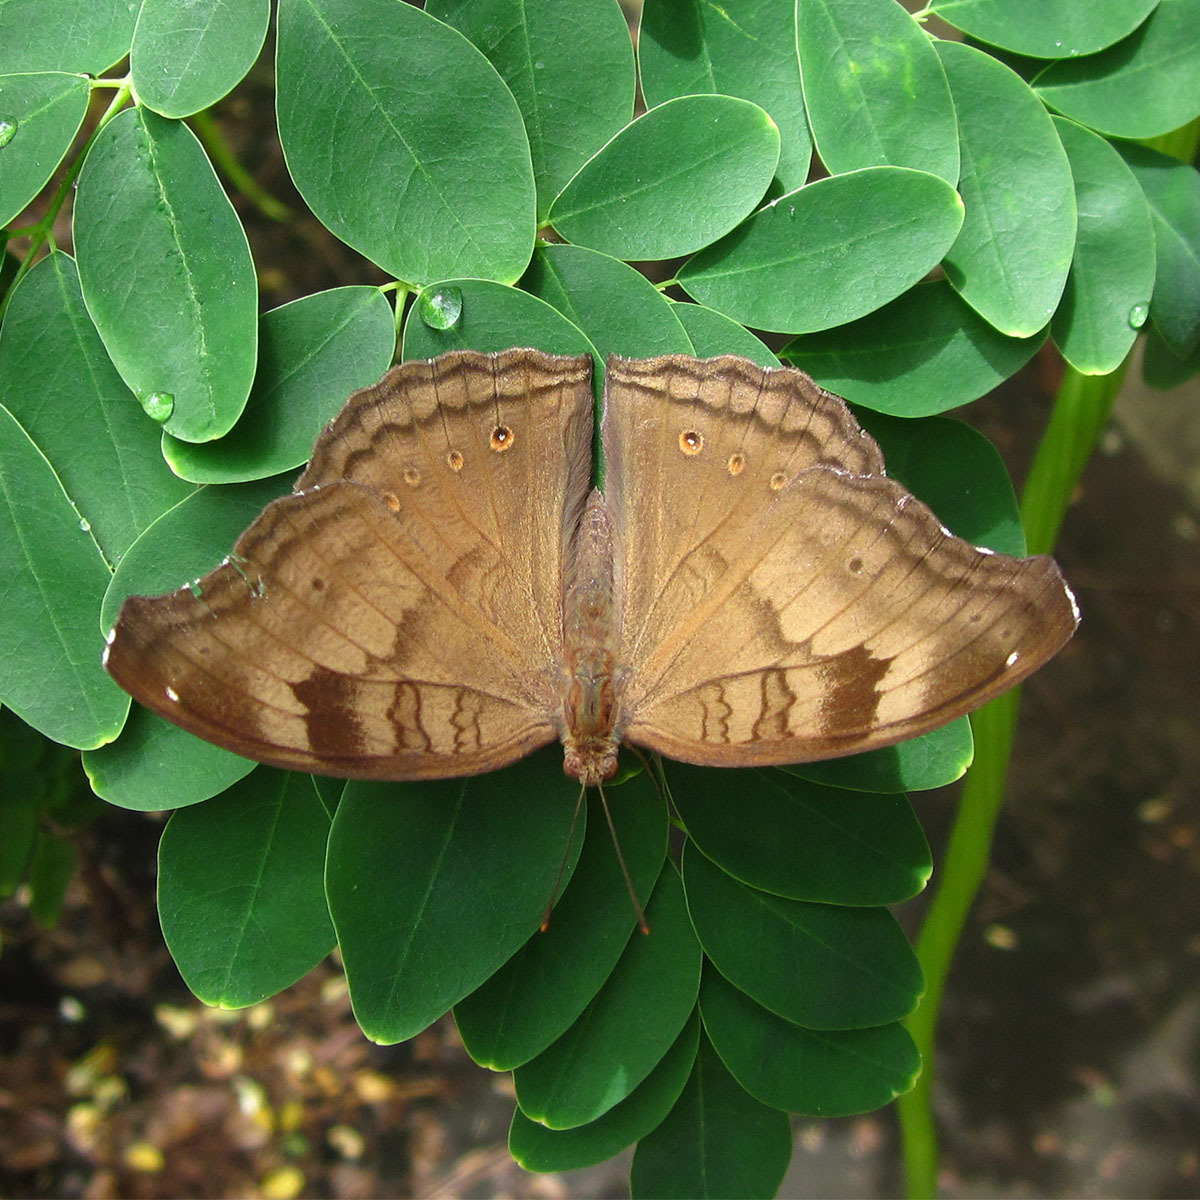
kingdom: Animalia
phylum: Arthropoda
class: Insecta
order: Lepidoptera
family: Nymphalidae
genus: Junonia
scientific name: Junonia iphita
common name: Chocolate pansy
